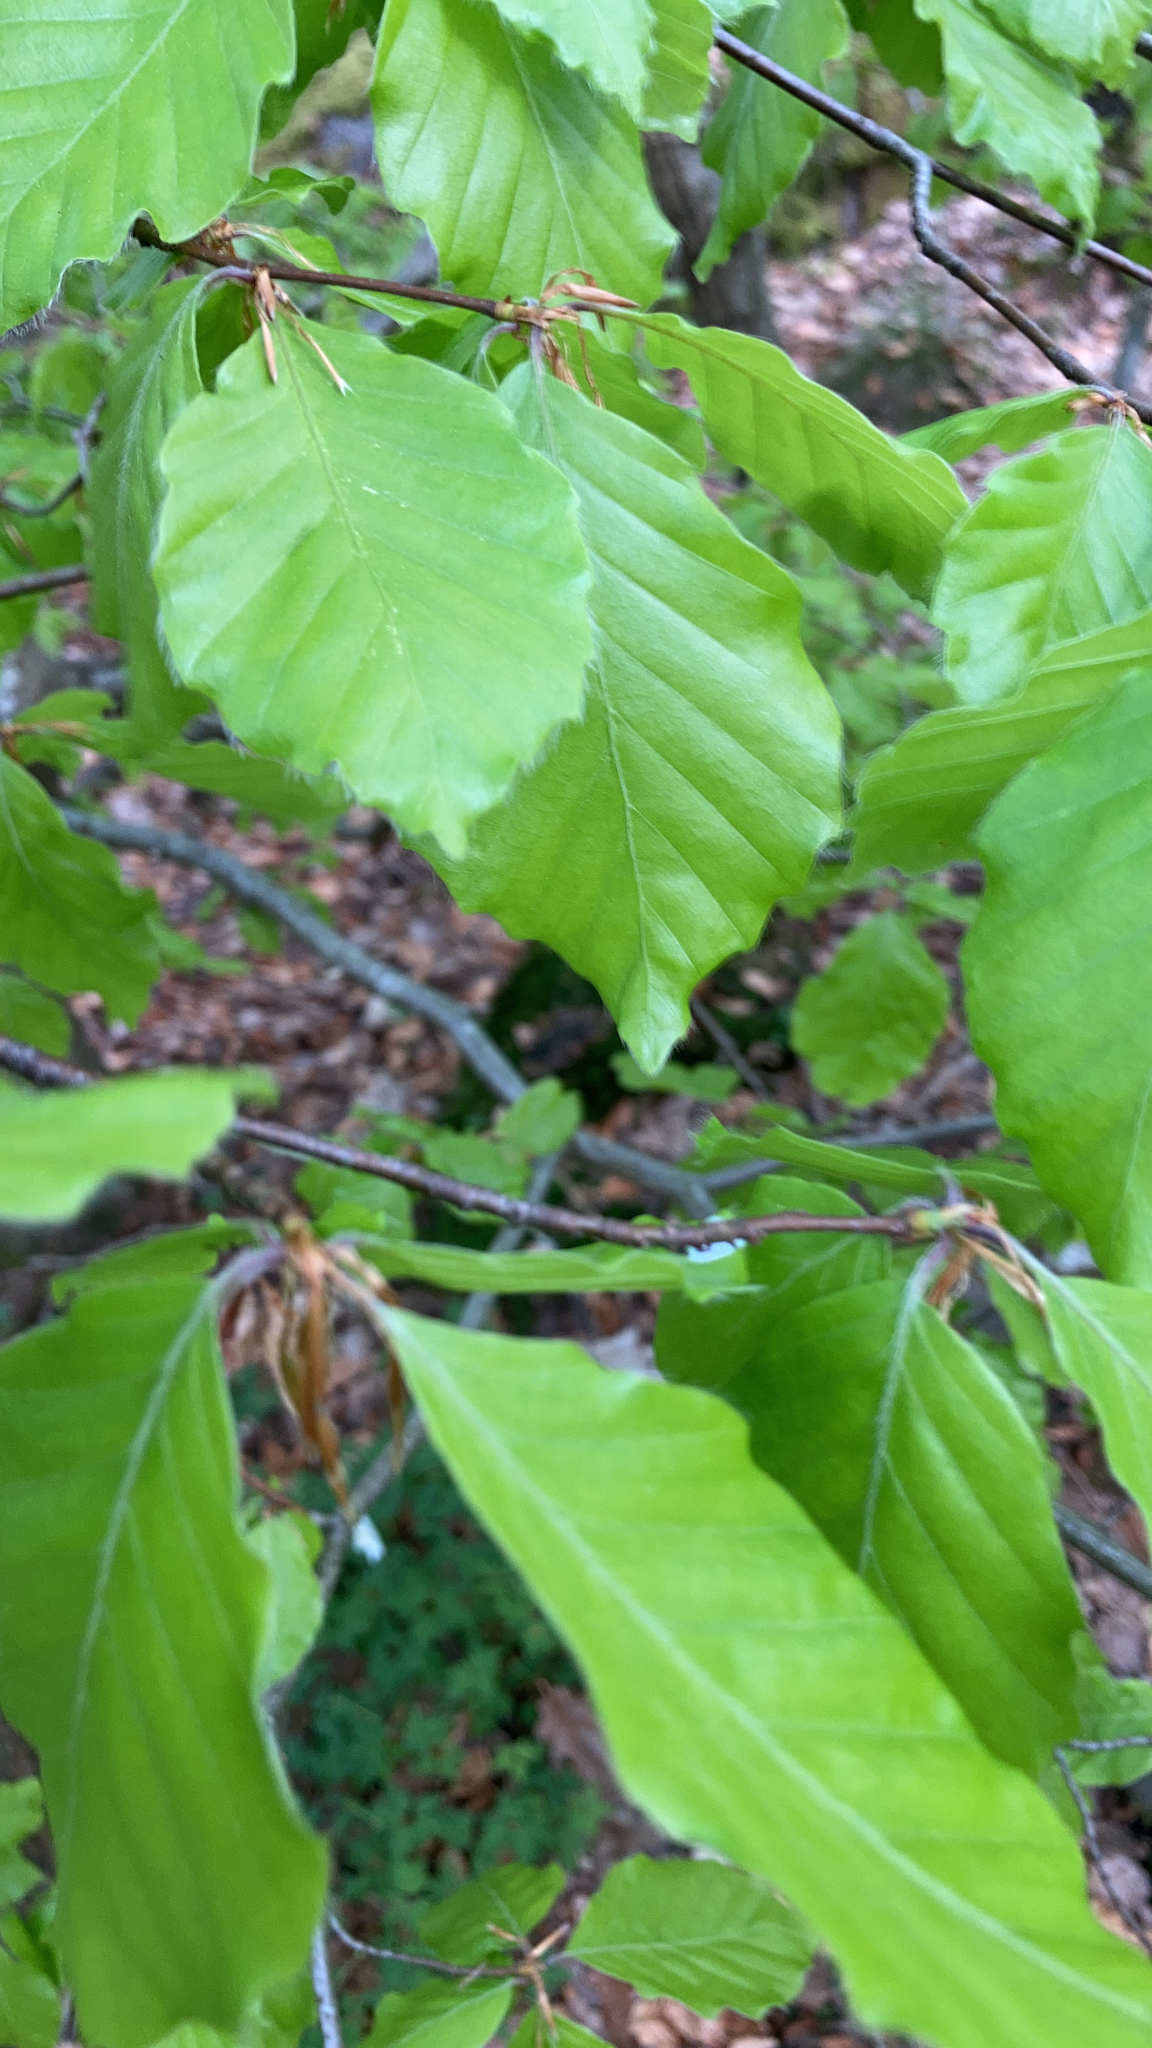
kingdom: Plantae
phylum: Tracheophyta
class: Magnoliopsida
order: Fagales
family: Fagaceae
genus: Fagus
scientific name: Fagus sylvatica
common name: Beech
